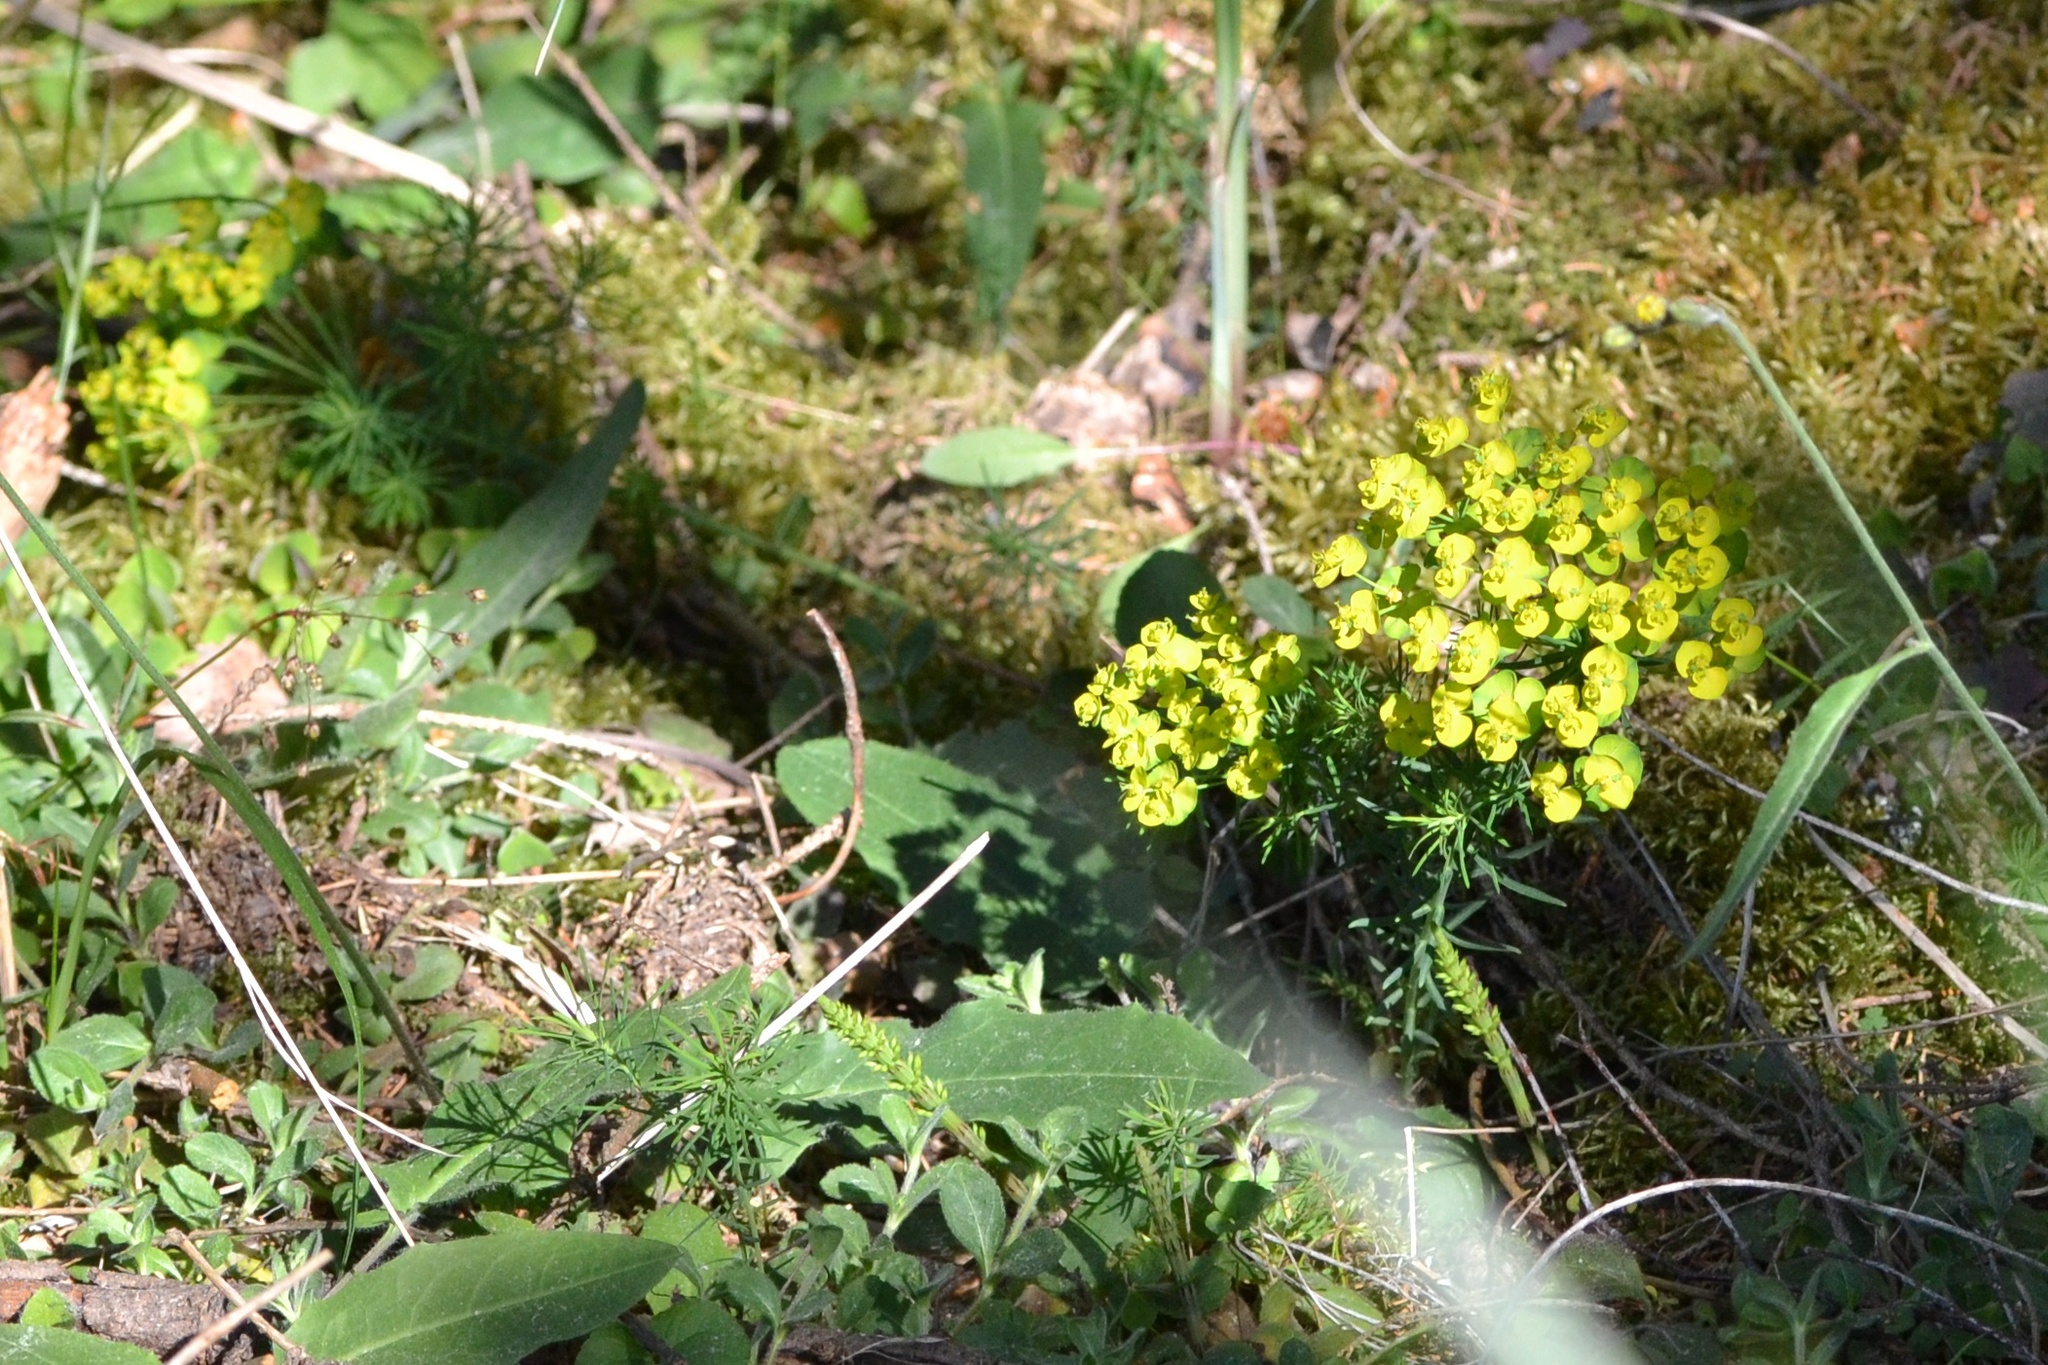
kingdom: Plantae
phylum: Tracheophyta
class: Magnoliopsida
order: Malpighiales
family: Euphorbiaceae
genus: Euphorbia
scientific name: Euphorbia cyparissias
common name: Cypress spurge
